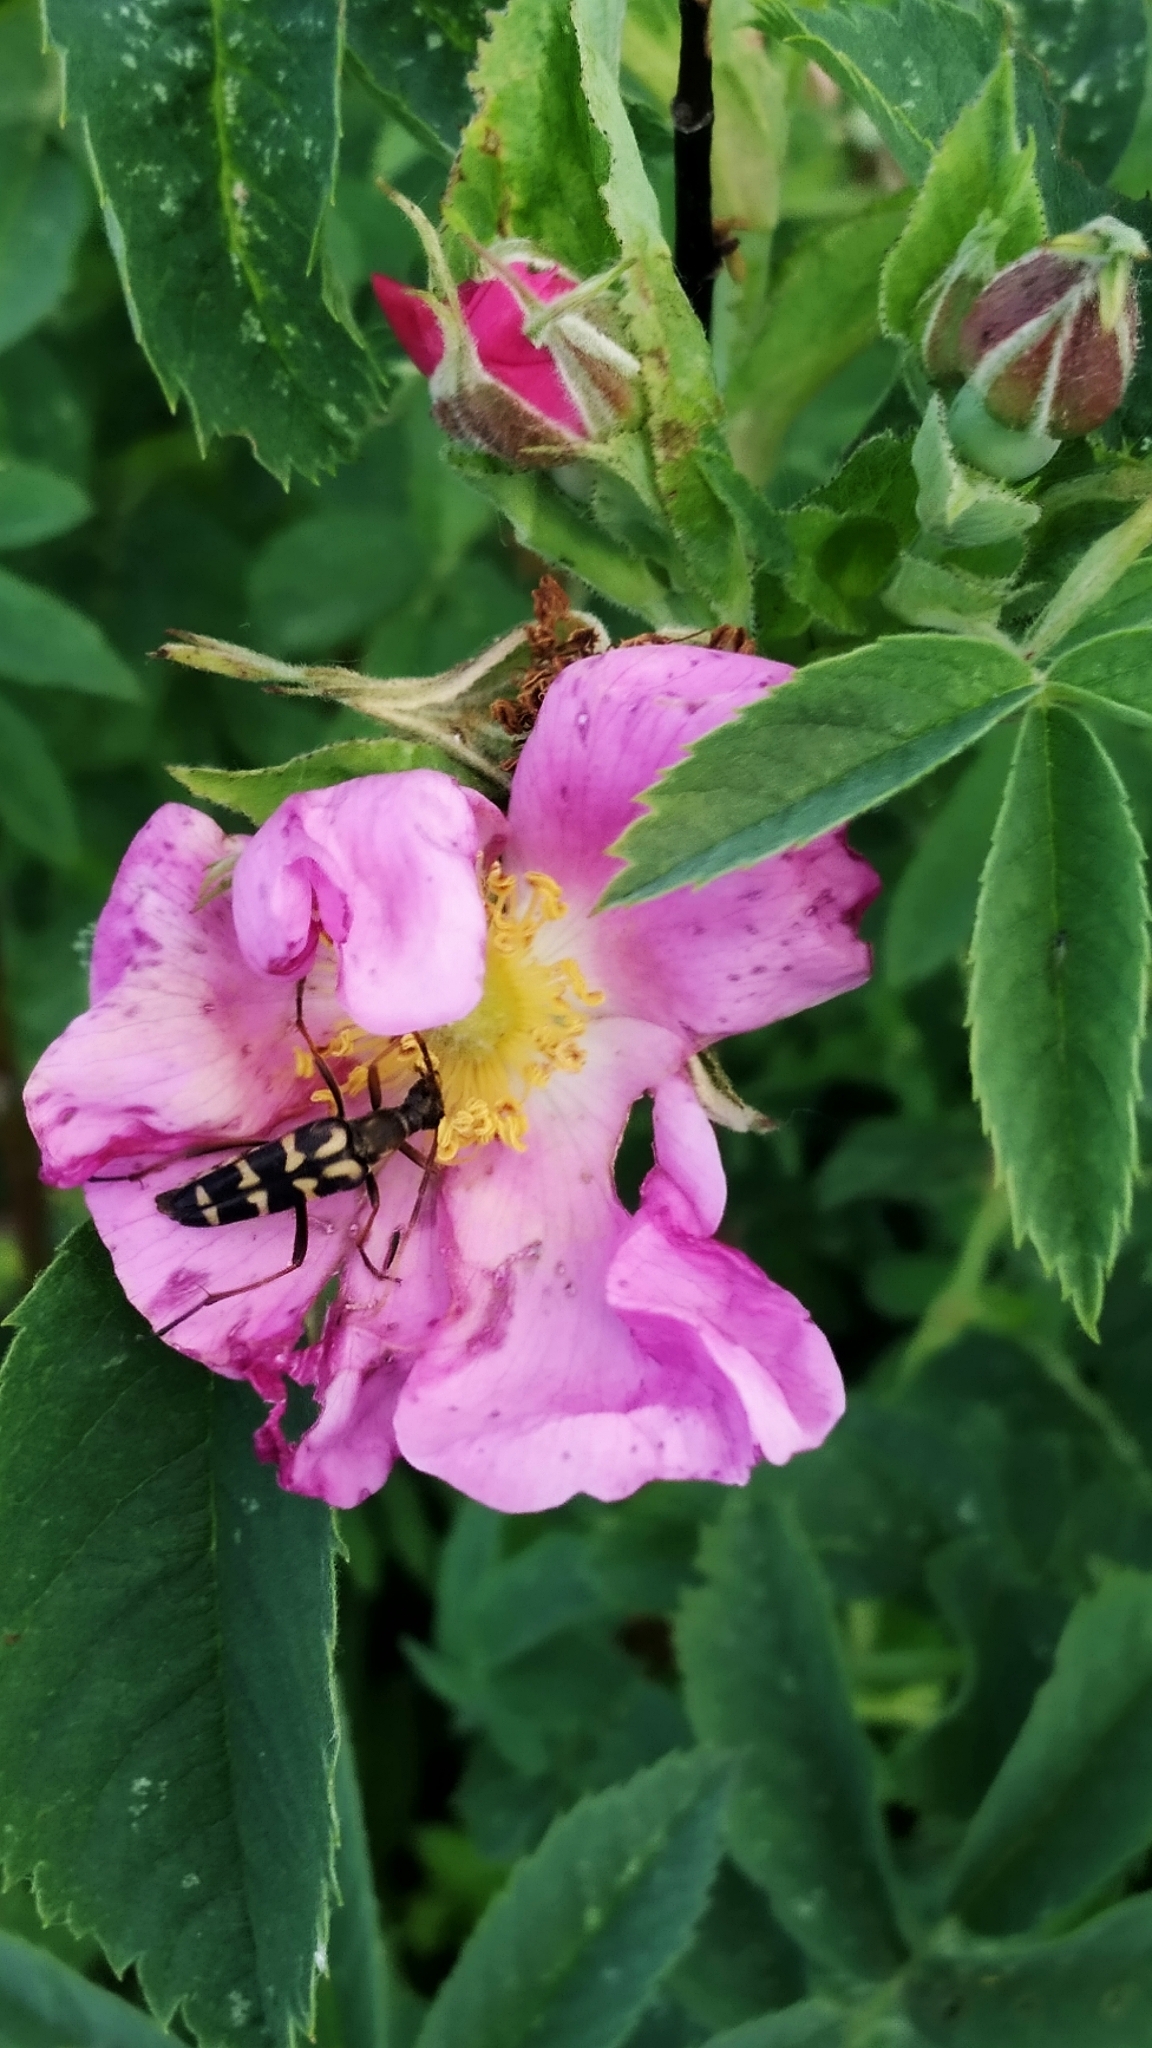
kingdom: Animalia
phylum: Arthropoda
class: Insecta
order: Coleoptera
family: Cerambycidae
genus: Leptura
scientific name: Leptura annularis
